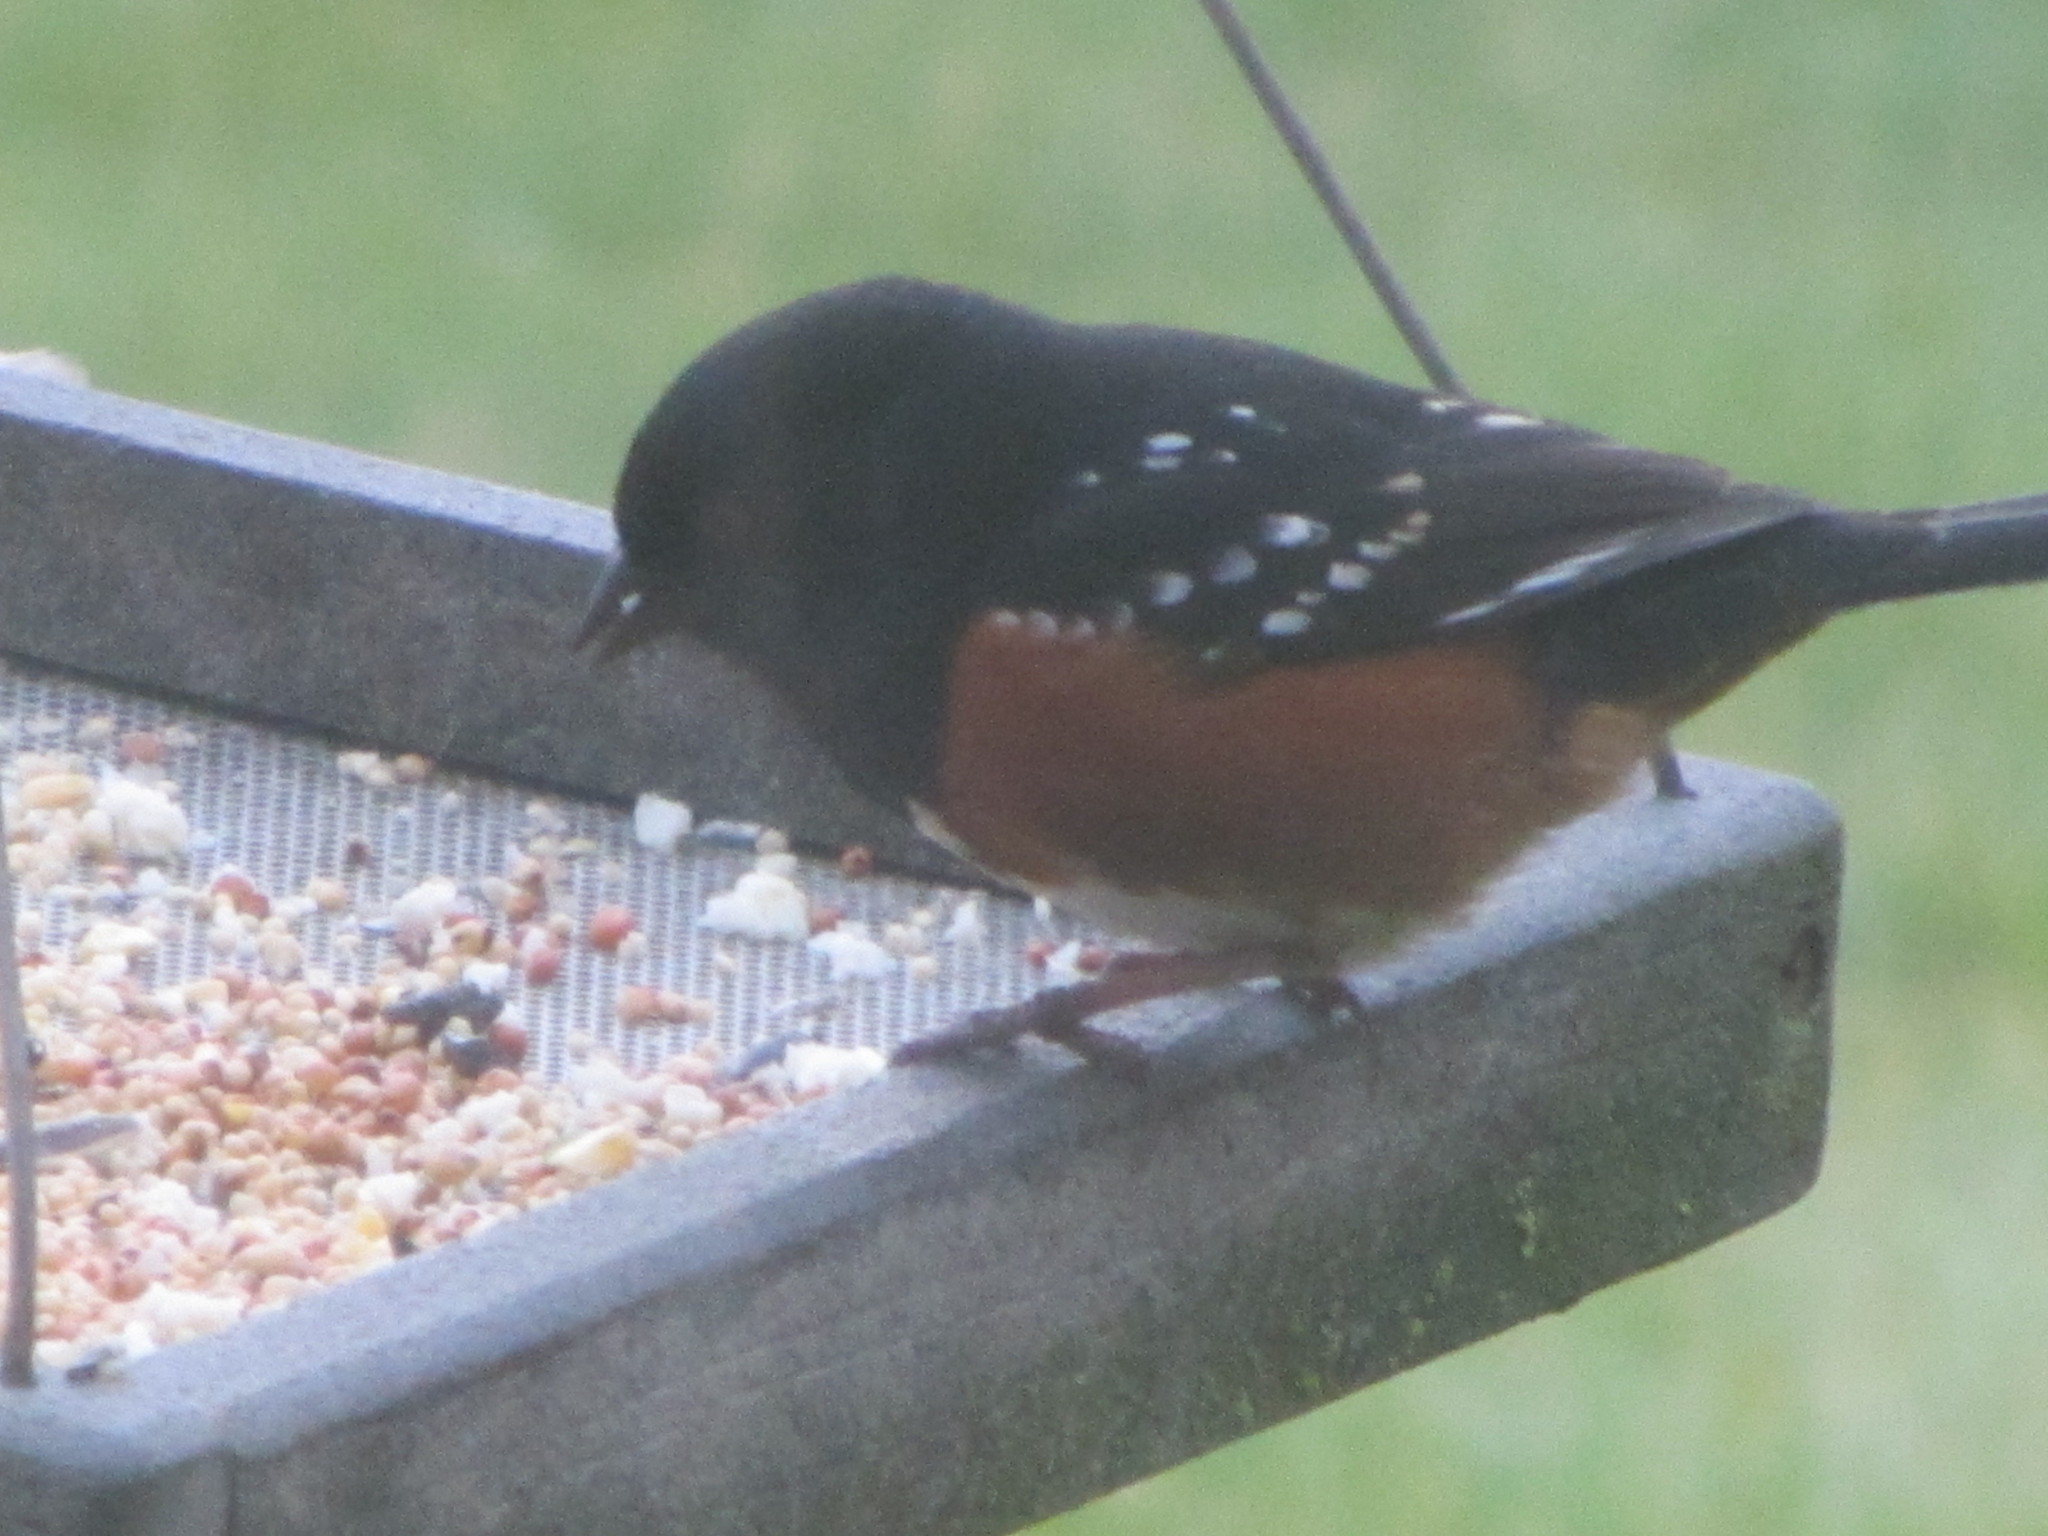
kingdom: Animalia
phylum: Chordata
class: Aves
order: Passeriformes
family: Passerellidae
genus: Pipilo
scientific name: Pipilo maculatus
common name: Spotted towhee
